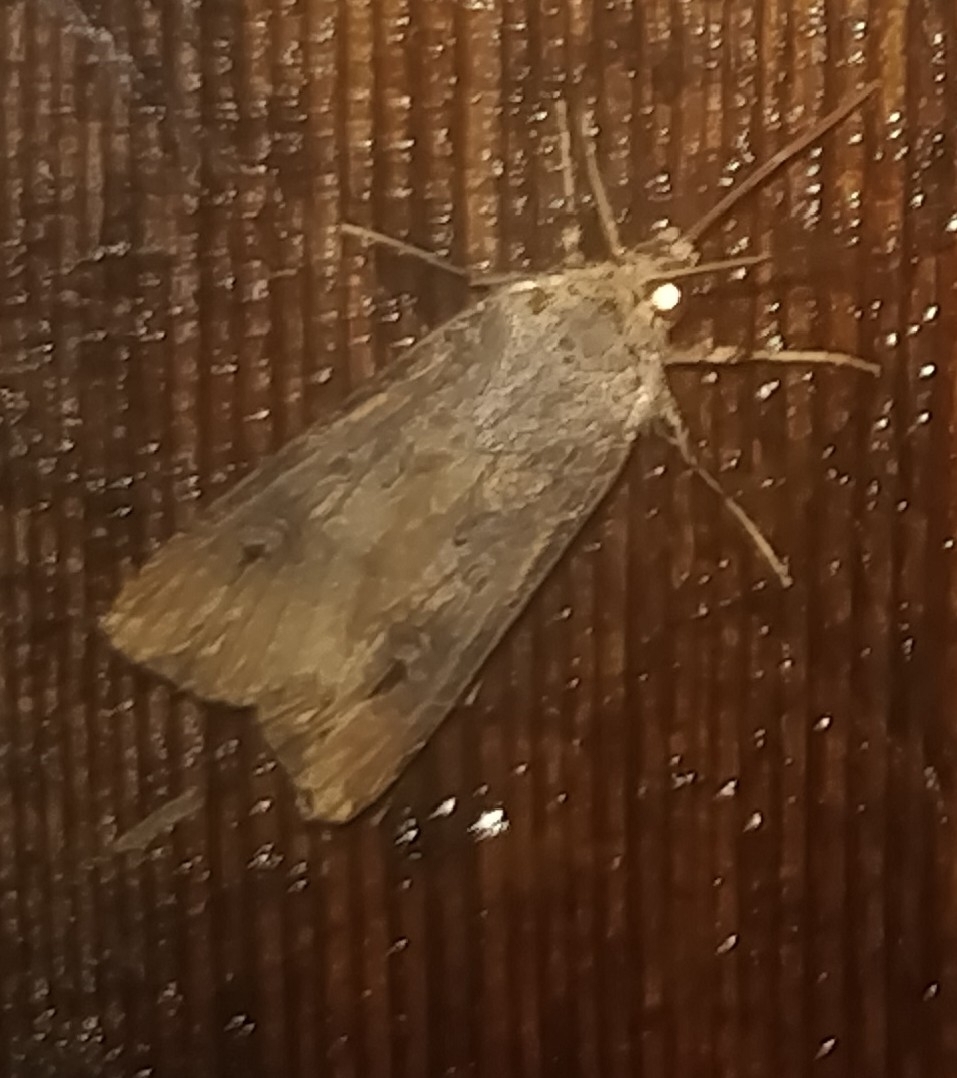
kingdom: Animalia
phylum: Arthropoda
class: Insecta
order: Lepidoptera
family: Noctuidae
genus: Agrotis
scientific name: Agrotis ipsilon
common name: Dark sword-grass
